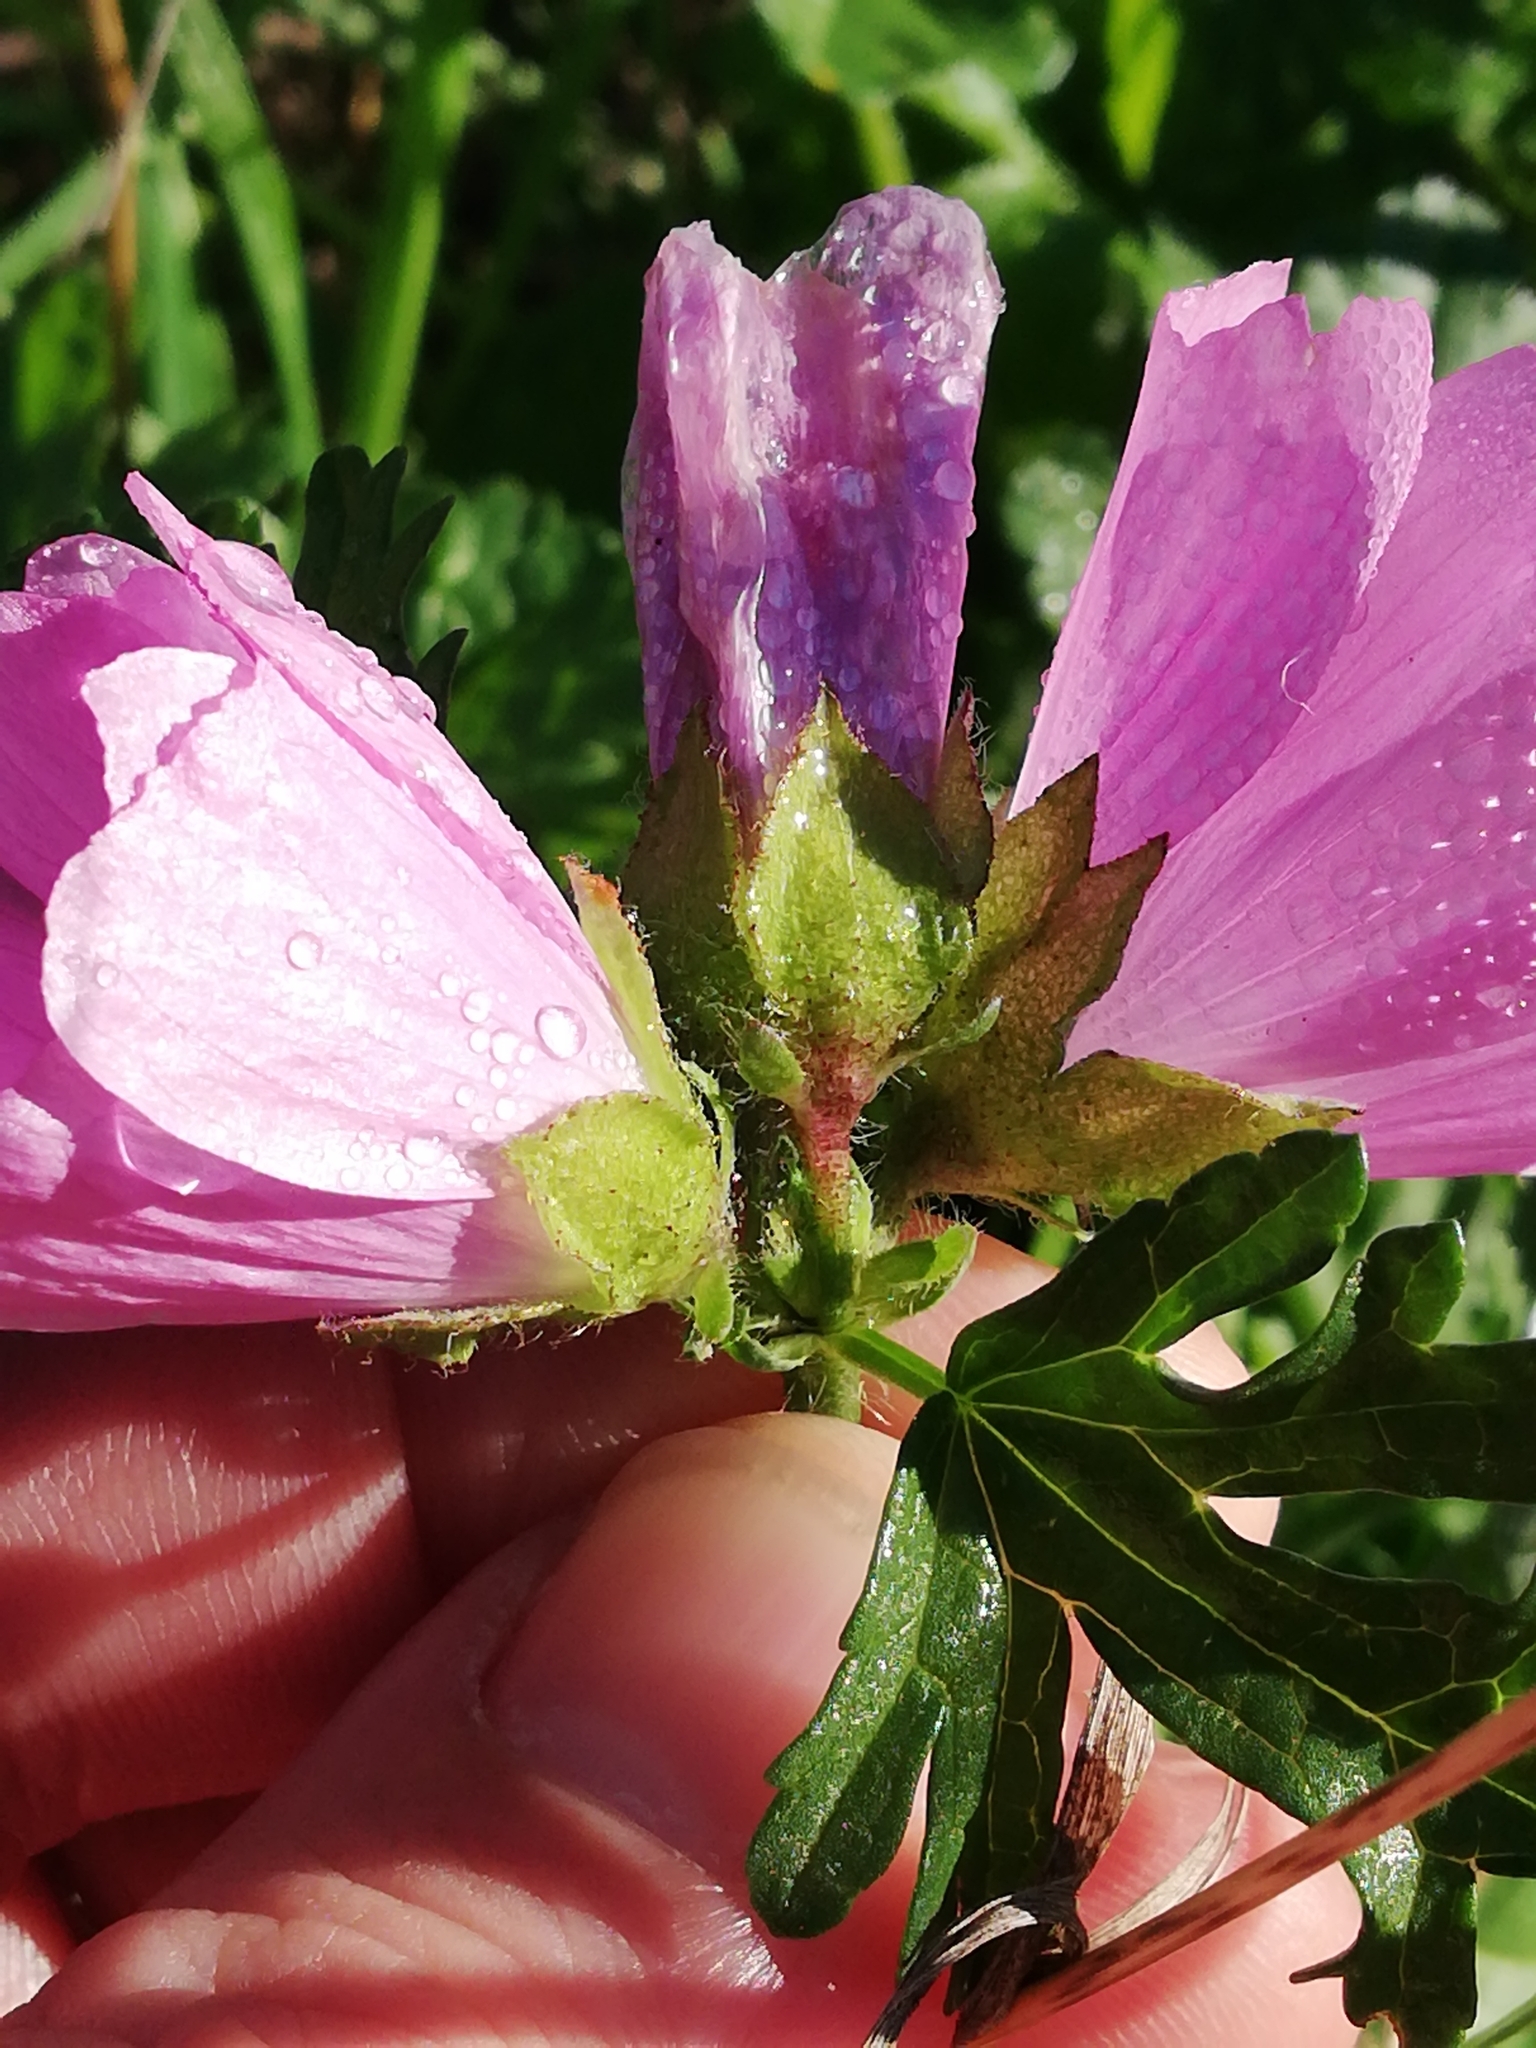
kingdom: Plantae
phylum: Tracheophyta
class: Magnoliopsida
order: Malvales
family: Malvaceae
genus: Malva
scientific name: Malva moschata
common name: Musk mallow
